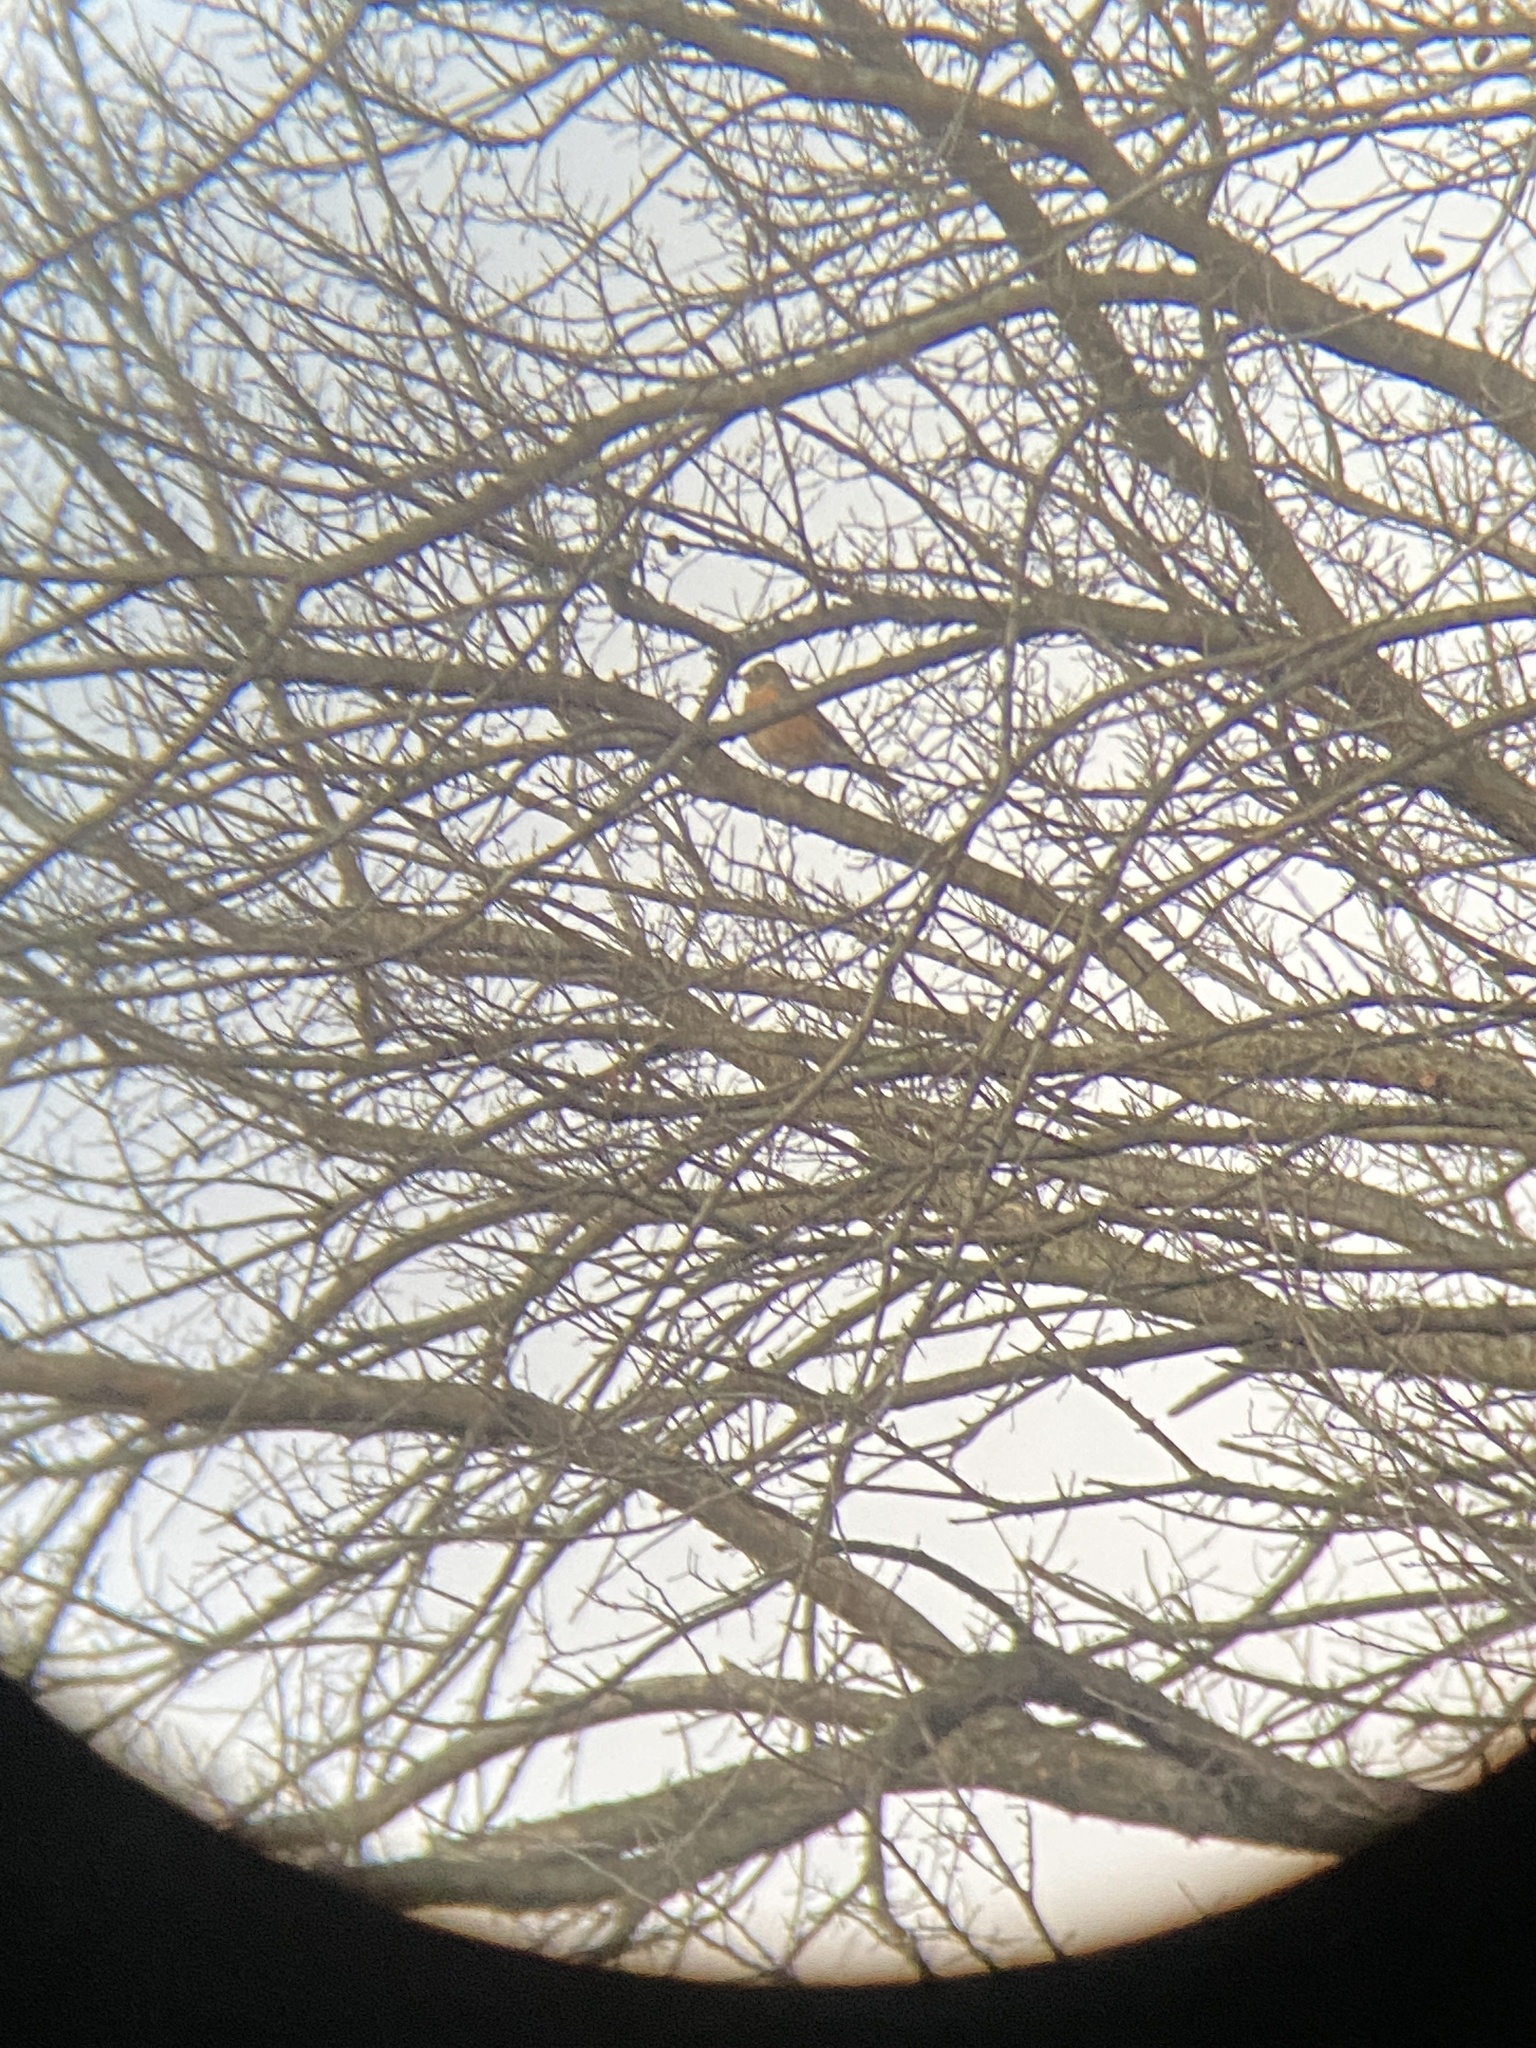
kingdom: Animalia
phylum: Chordata
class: Aves
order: Passeriformes
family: Turdidae
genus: Turdus
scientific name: Turdus migratorius
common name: American robin
